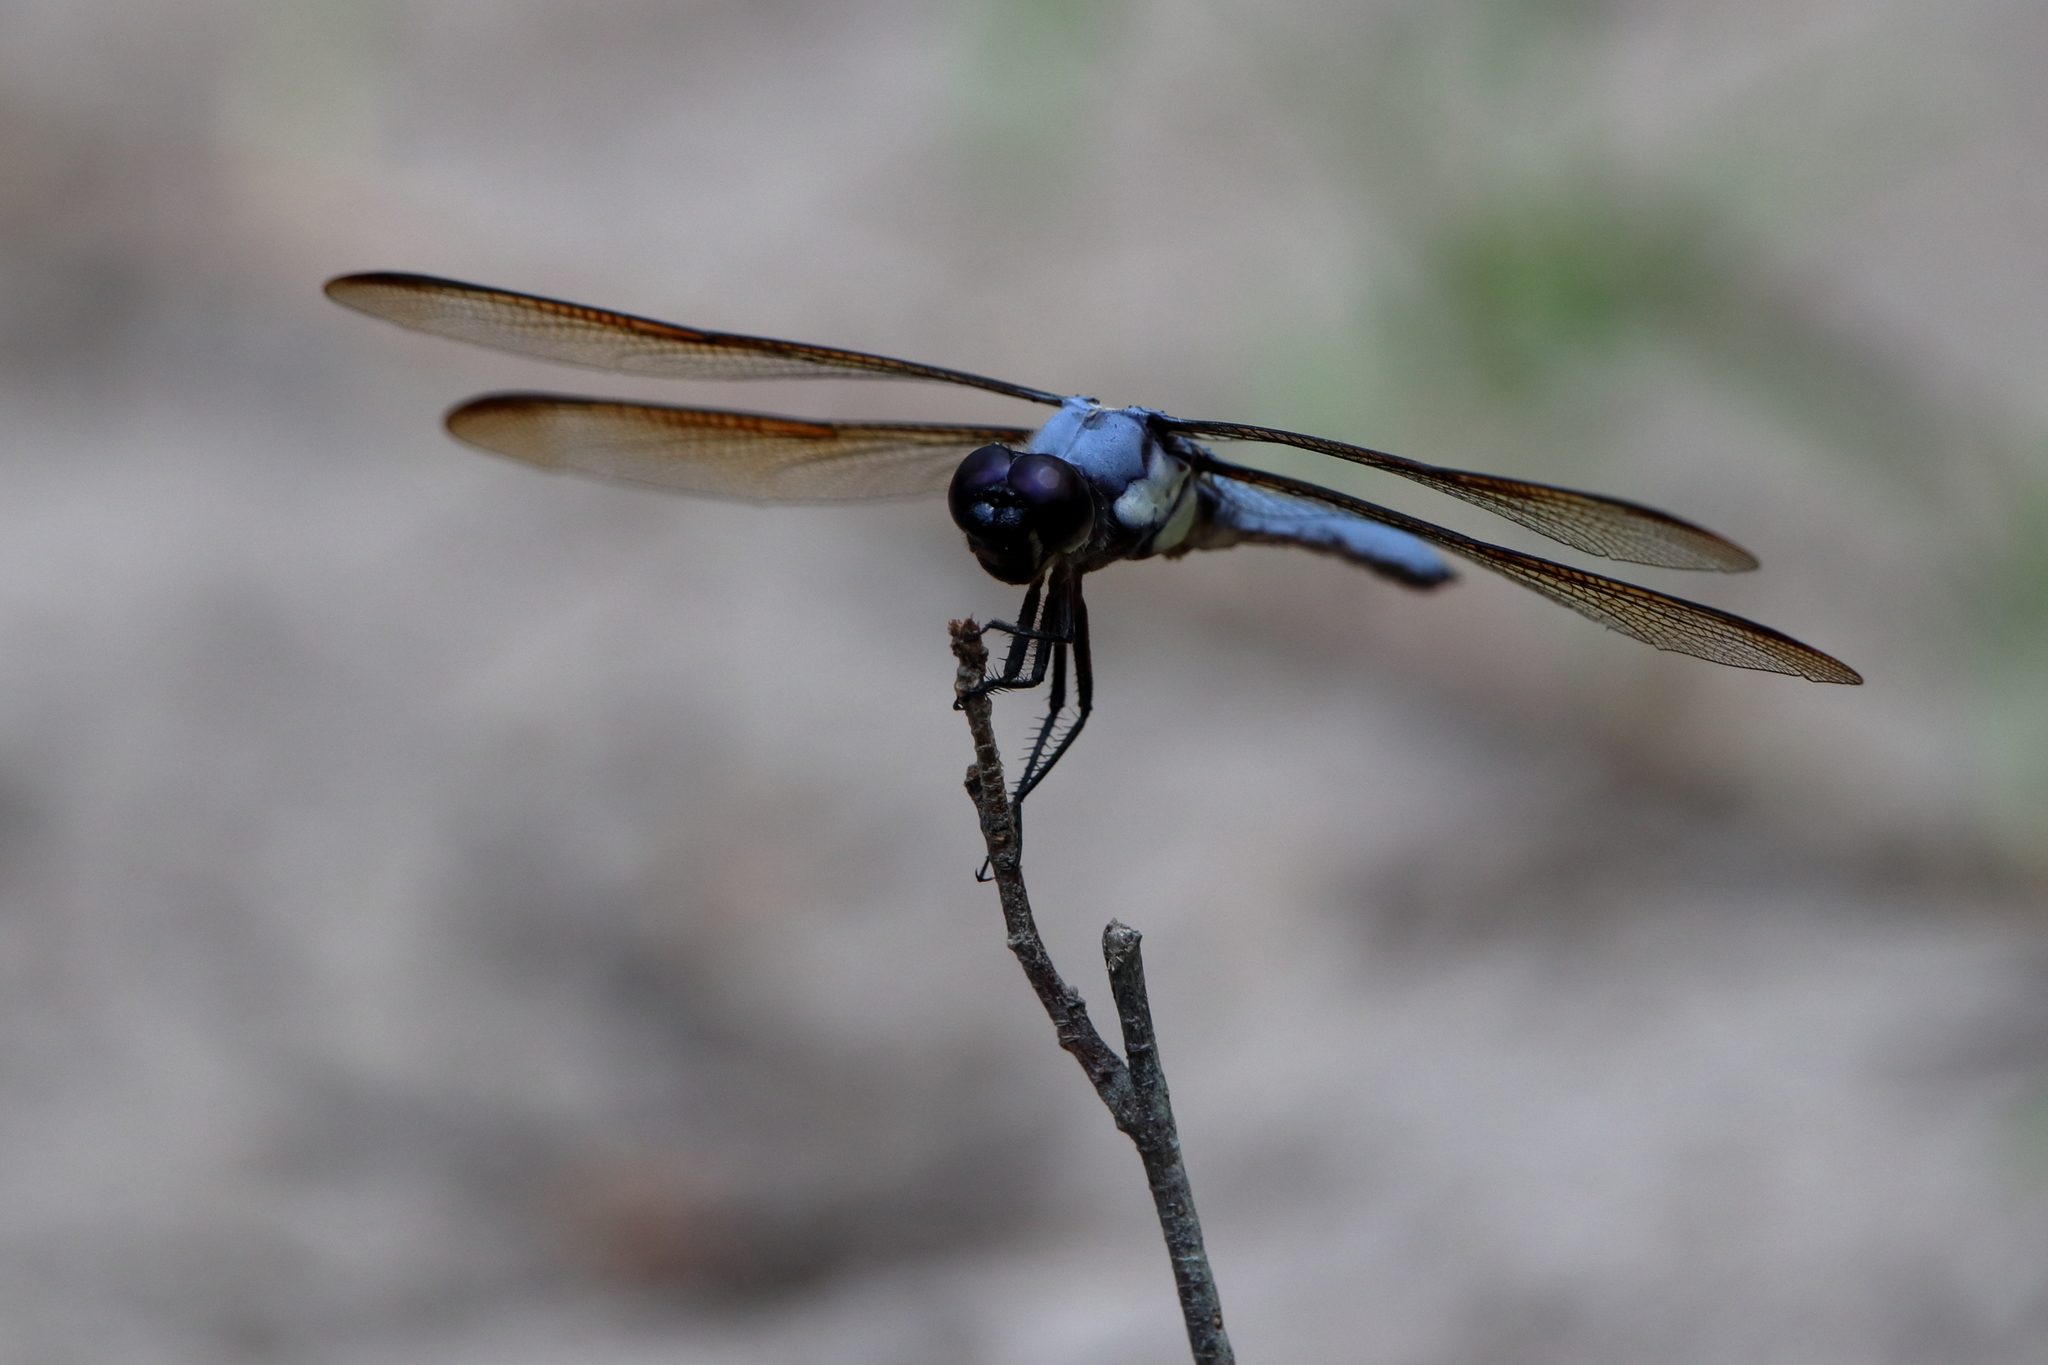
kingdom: Animalia
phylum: Arthropoda
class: Insecta
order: Odonata
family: Libellulidae
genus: Libellula
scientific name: Libellula flavida
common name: Yellow-sided skimmer
